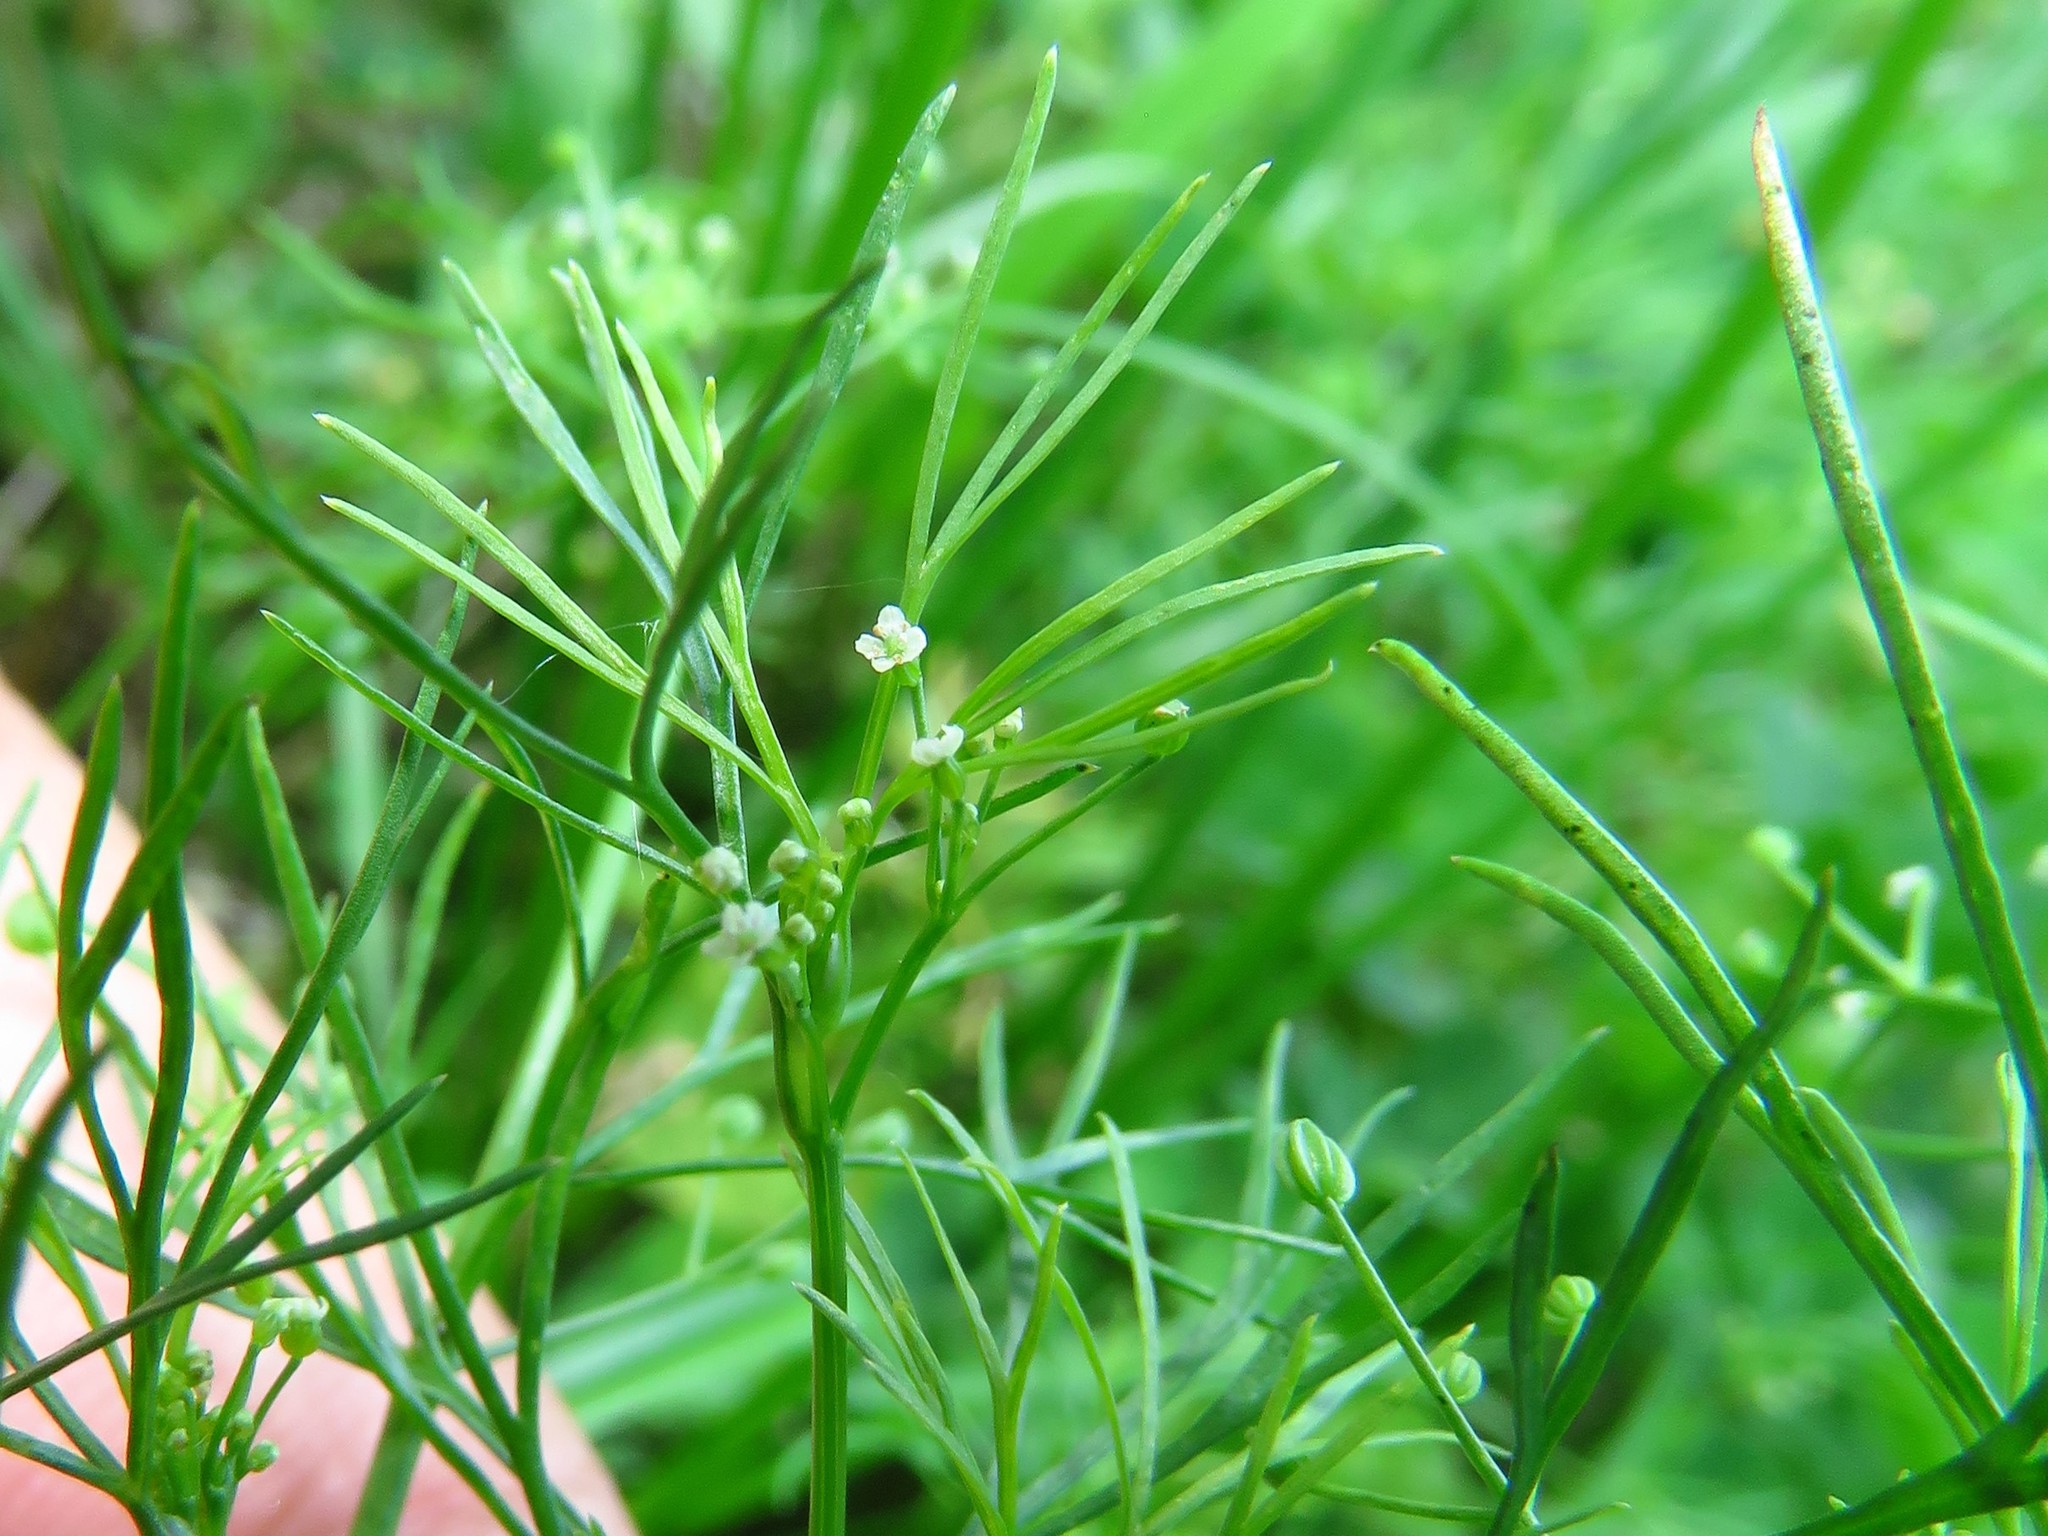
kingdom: Plantae
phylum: Tracheophyta
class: Magnoliopsida
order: Apiales
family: Apiaceae
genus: Cyclospermum
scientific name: Cyclospermum leptophyllum
